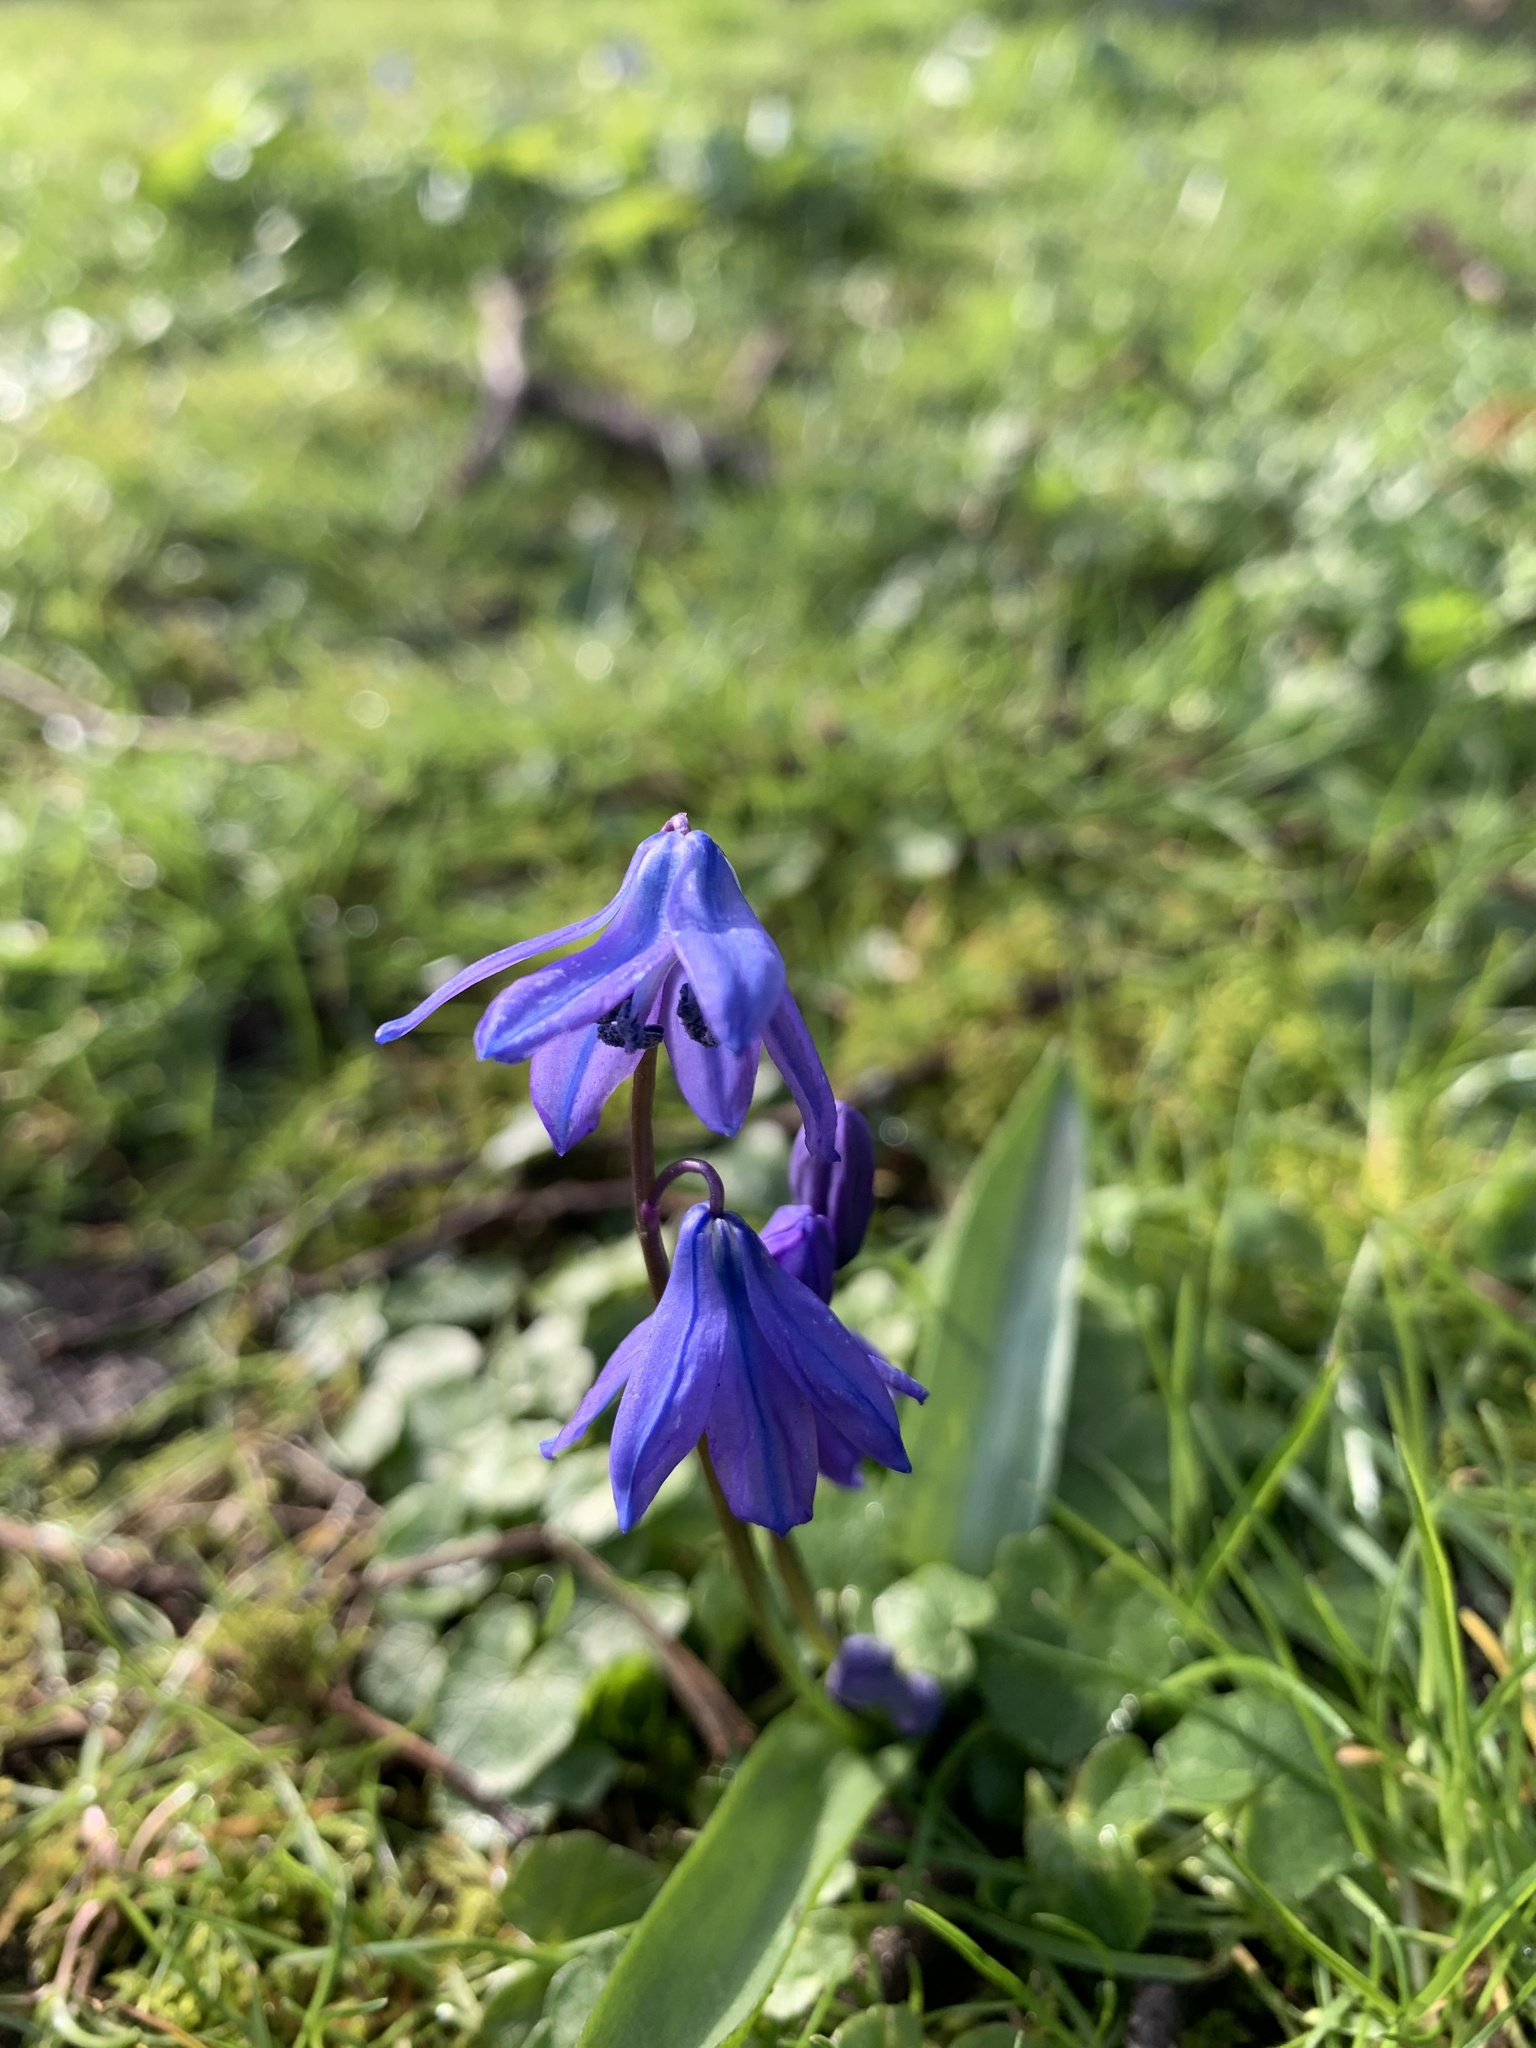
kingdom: Plantae
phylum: Tracheophyta
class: Liliopsida
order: Asparagales
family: Asparagaceae
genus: Scilla
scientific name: Scilla siberica
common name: Siberian squill
